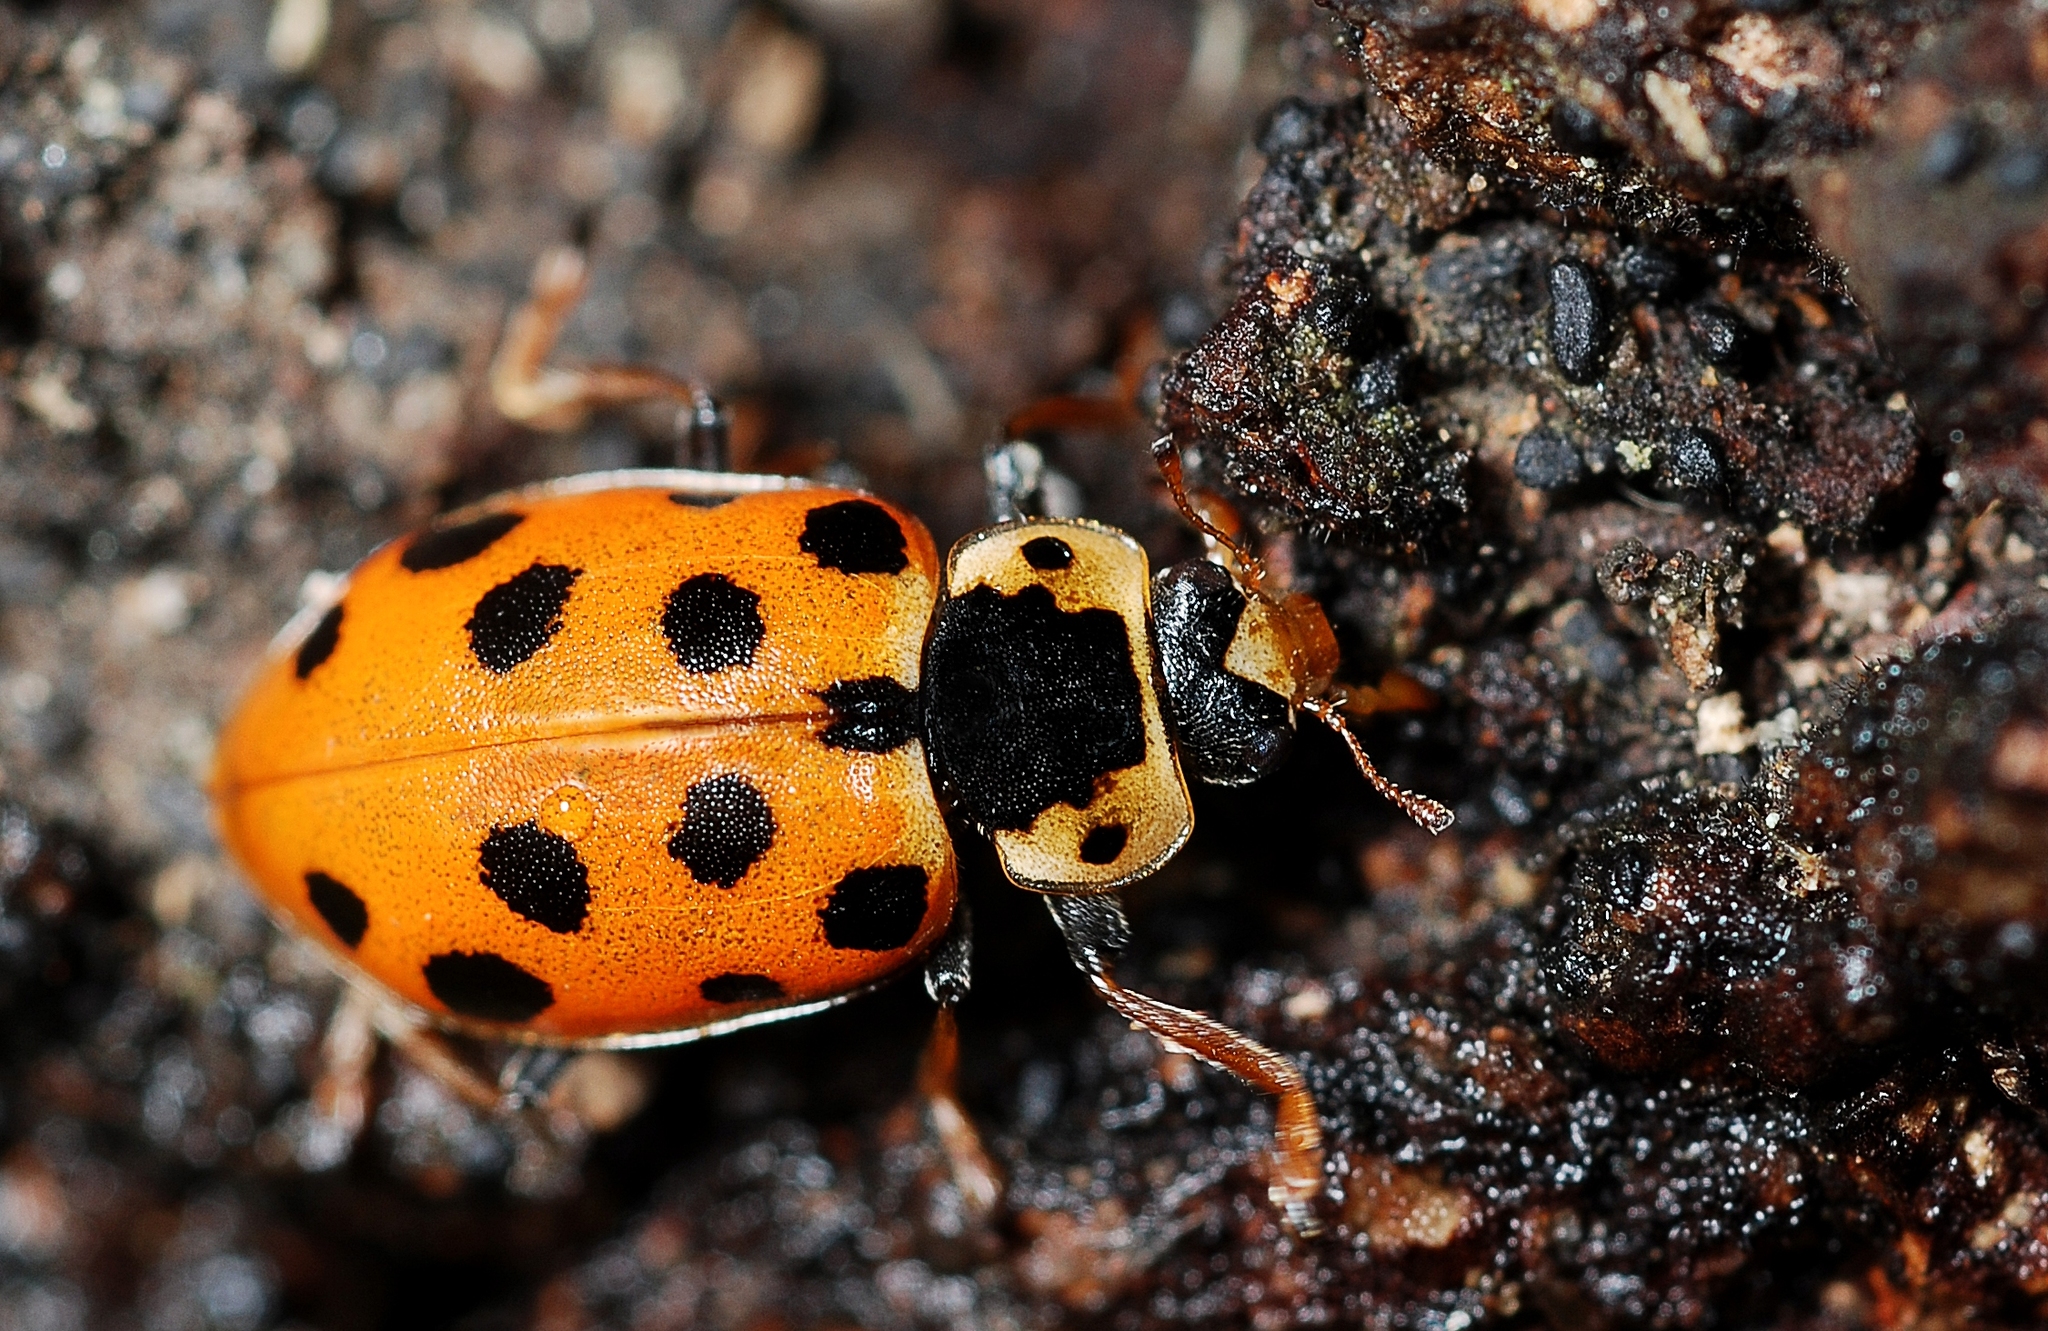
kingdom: Animalia
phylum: Arthropoda
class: Insecta
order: Coleoptera
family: Coccinellidae
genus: Hippodamia
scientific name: Hippodamia tredecimpunctata
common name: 13-spot ladybird
